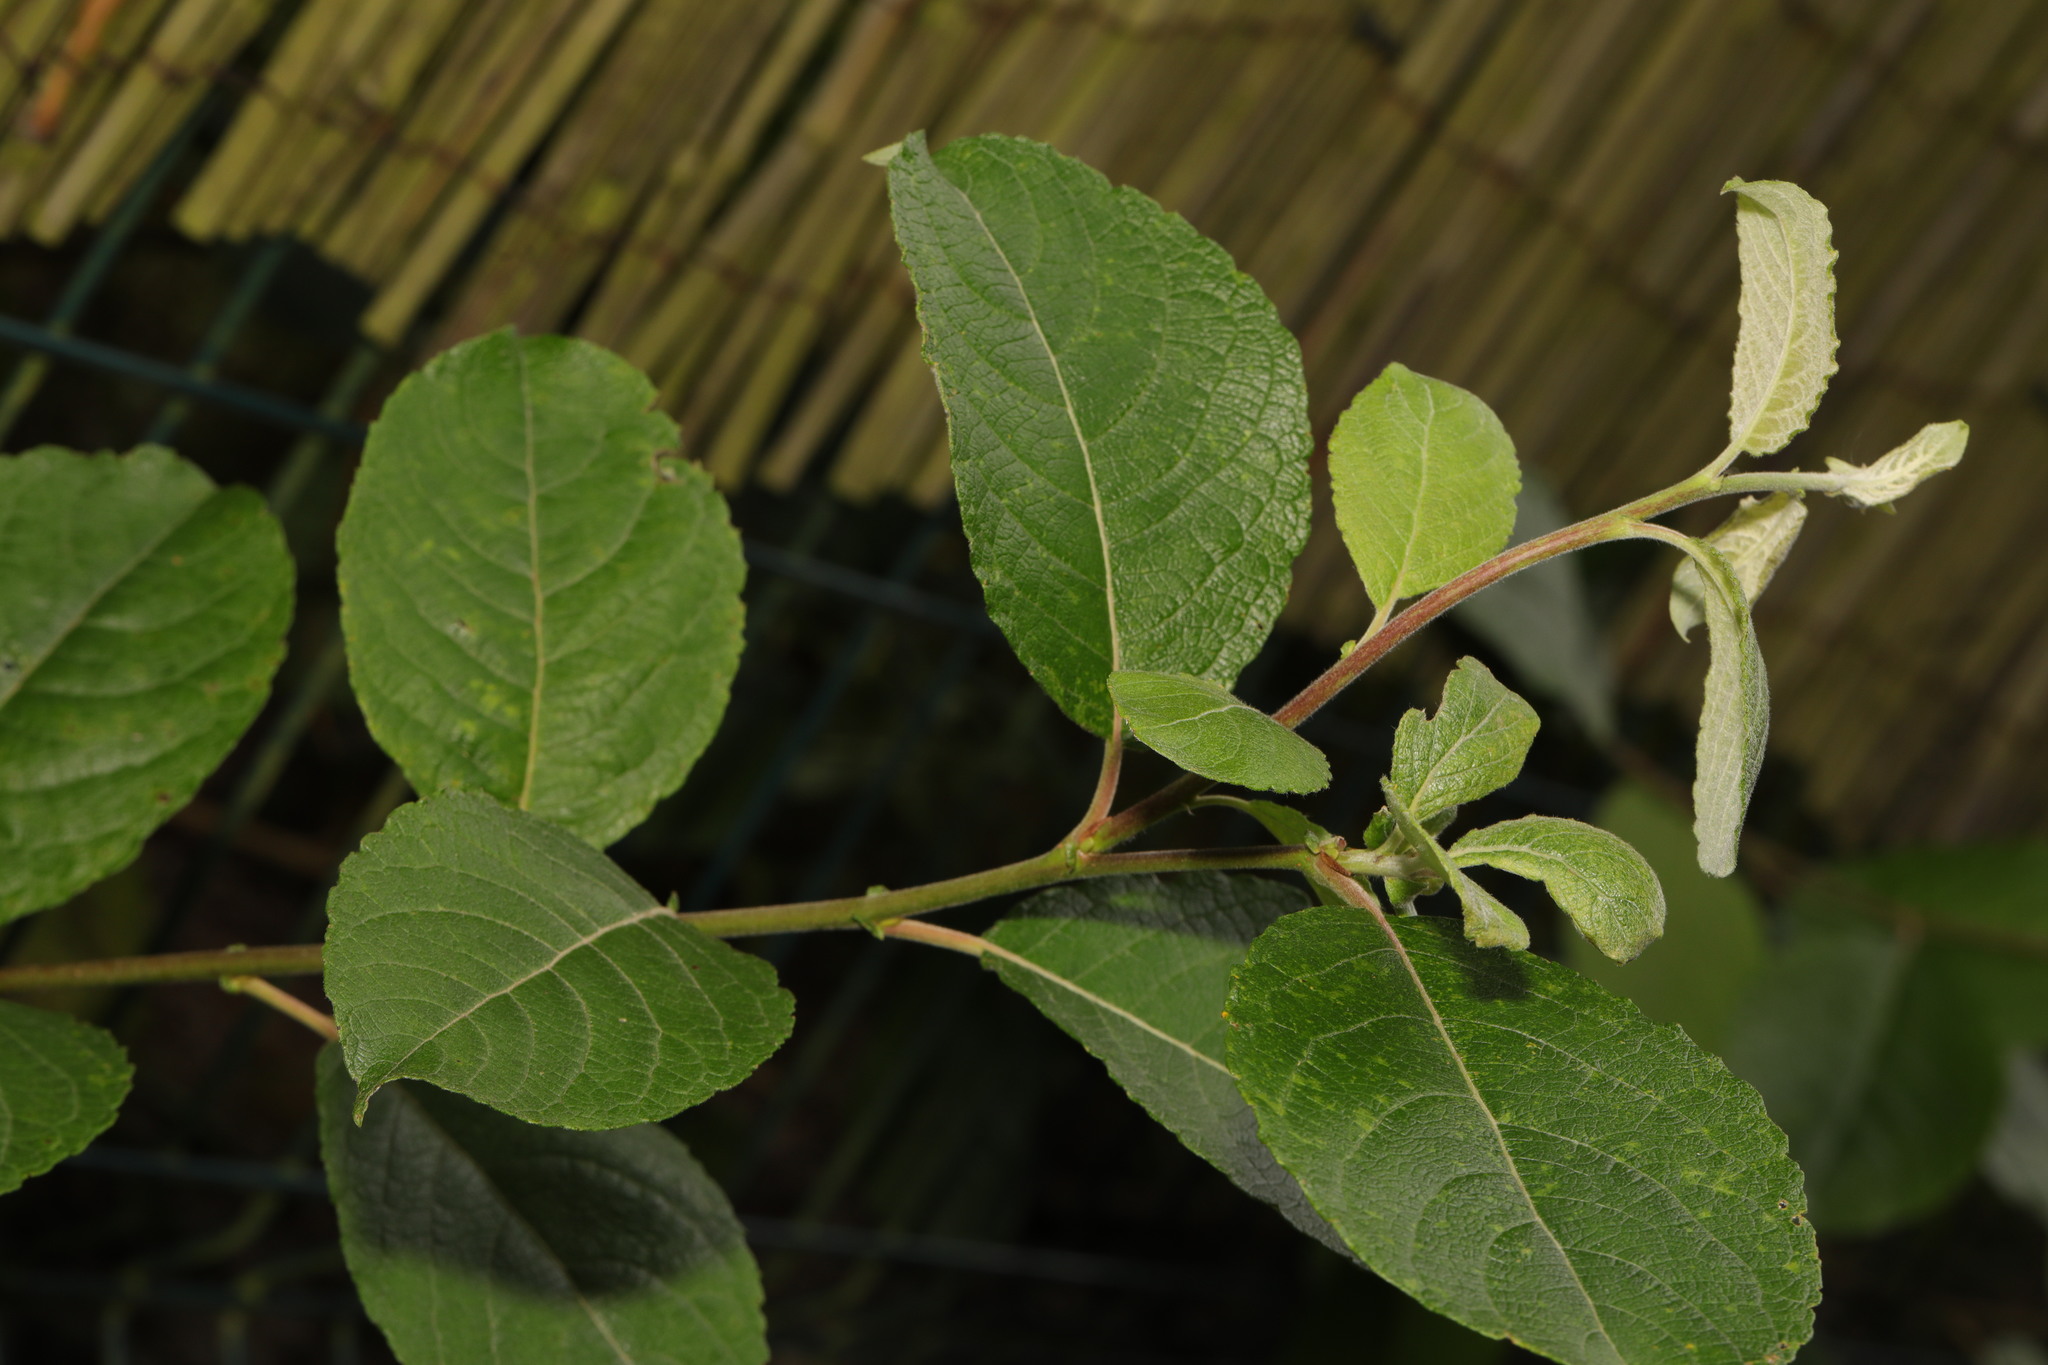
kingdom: Plantae
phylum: Tracheophyta
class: Magnoliopsida
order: Malpighiales
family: Salicaceae
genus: Salix
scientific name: Salix caprea
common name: Goat willow
